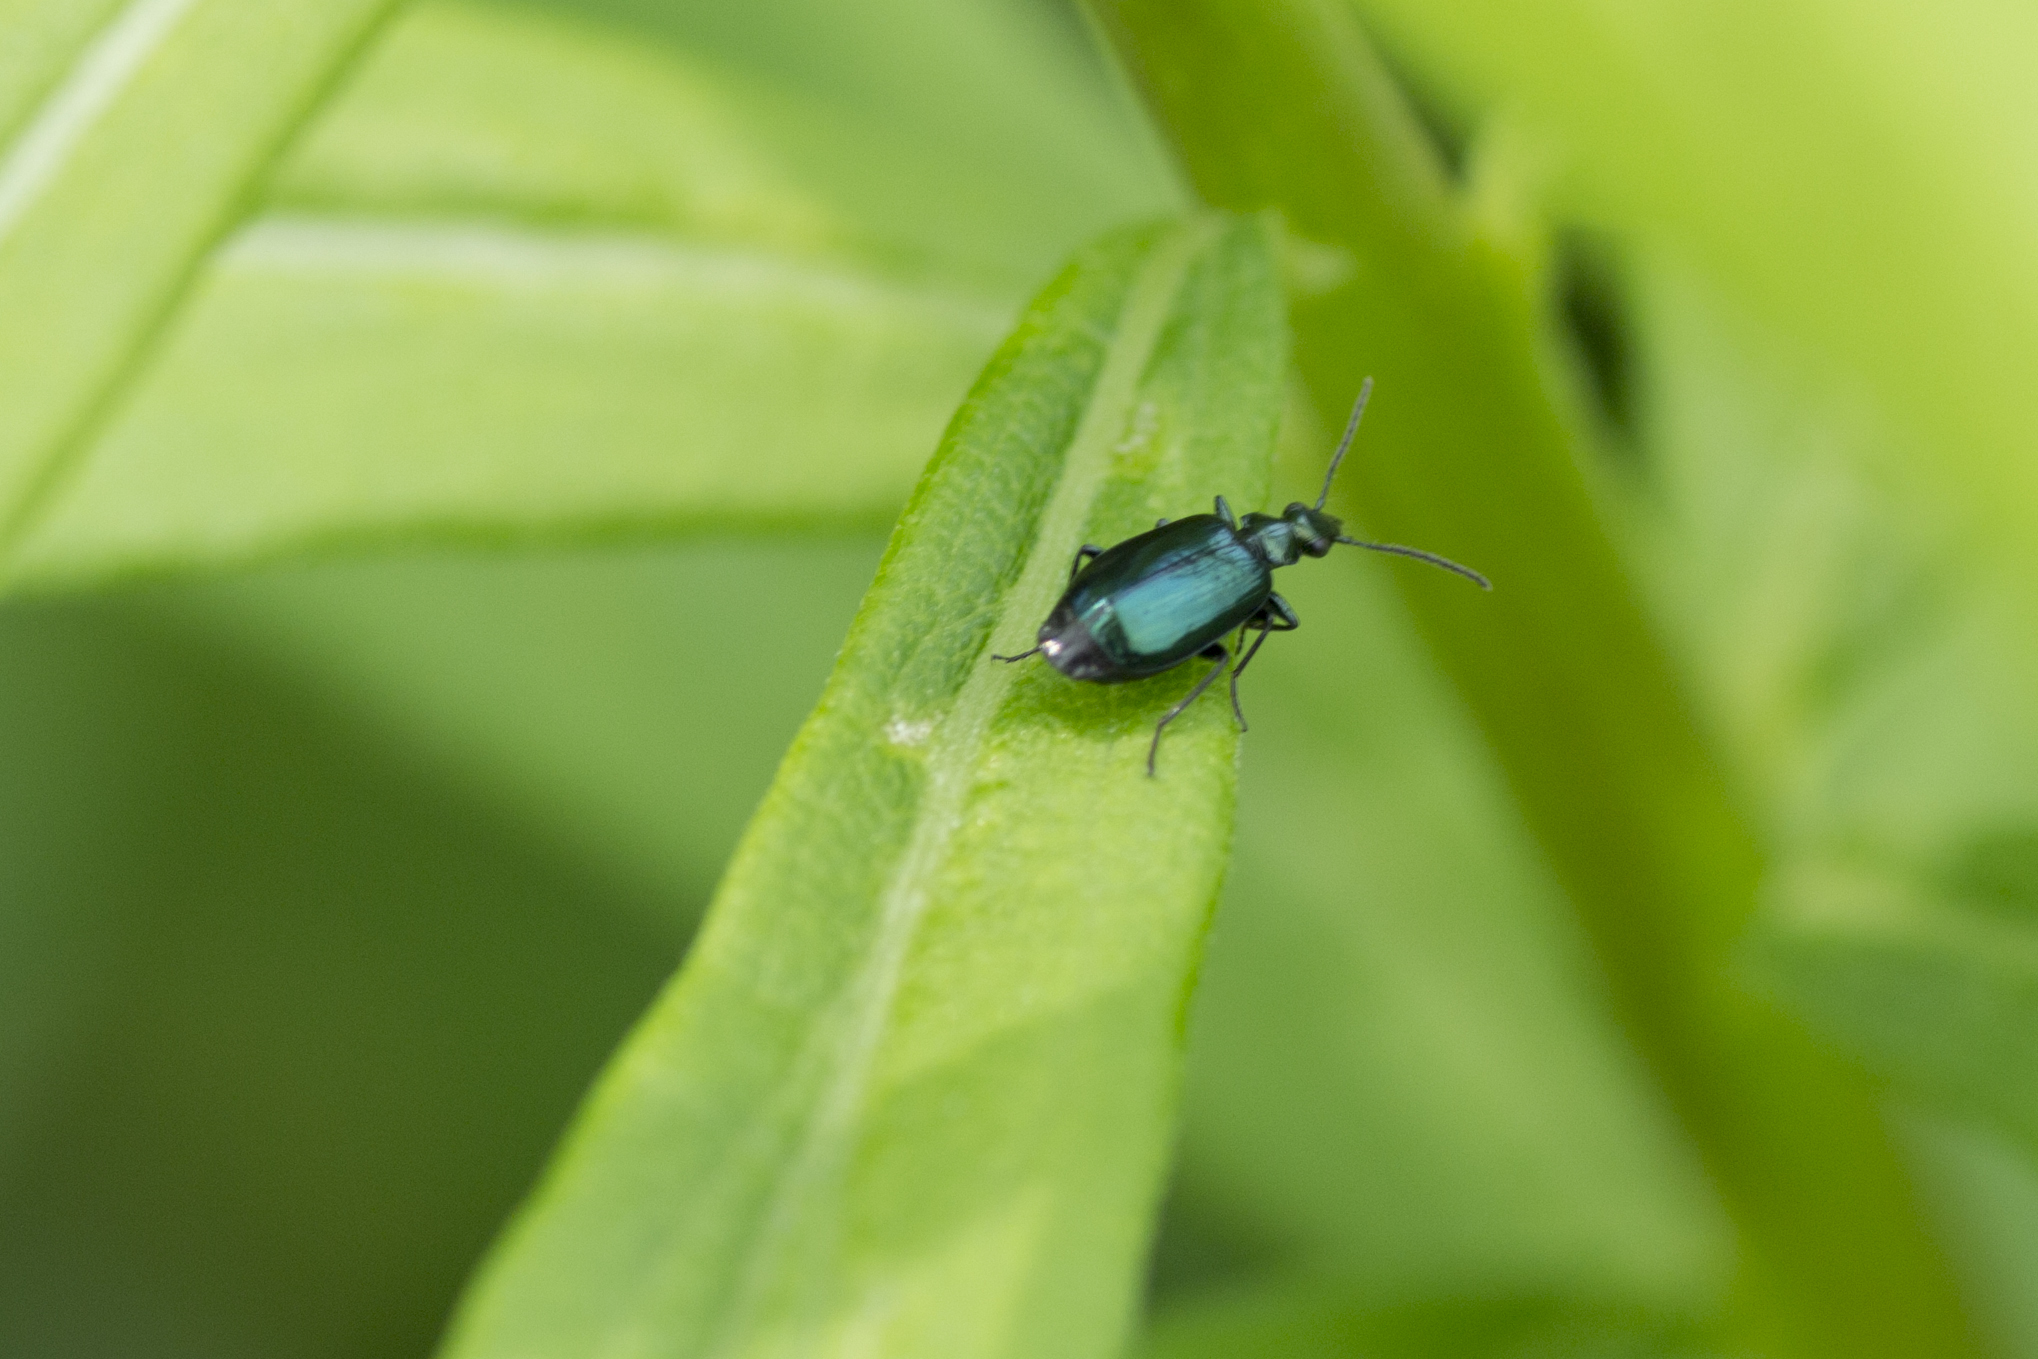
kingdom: Animalia
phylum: Arthropoda
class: Insecta
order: Coleoptera
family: Carabidae
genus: Lebia
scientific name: Lebia viridis
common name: Flower lebia beetle
